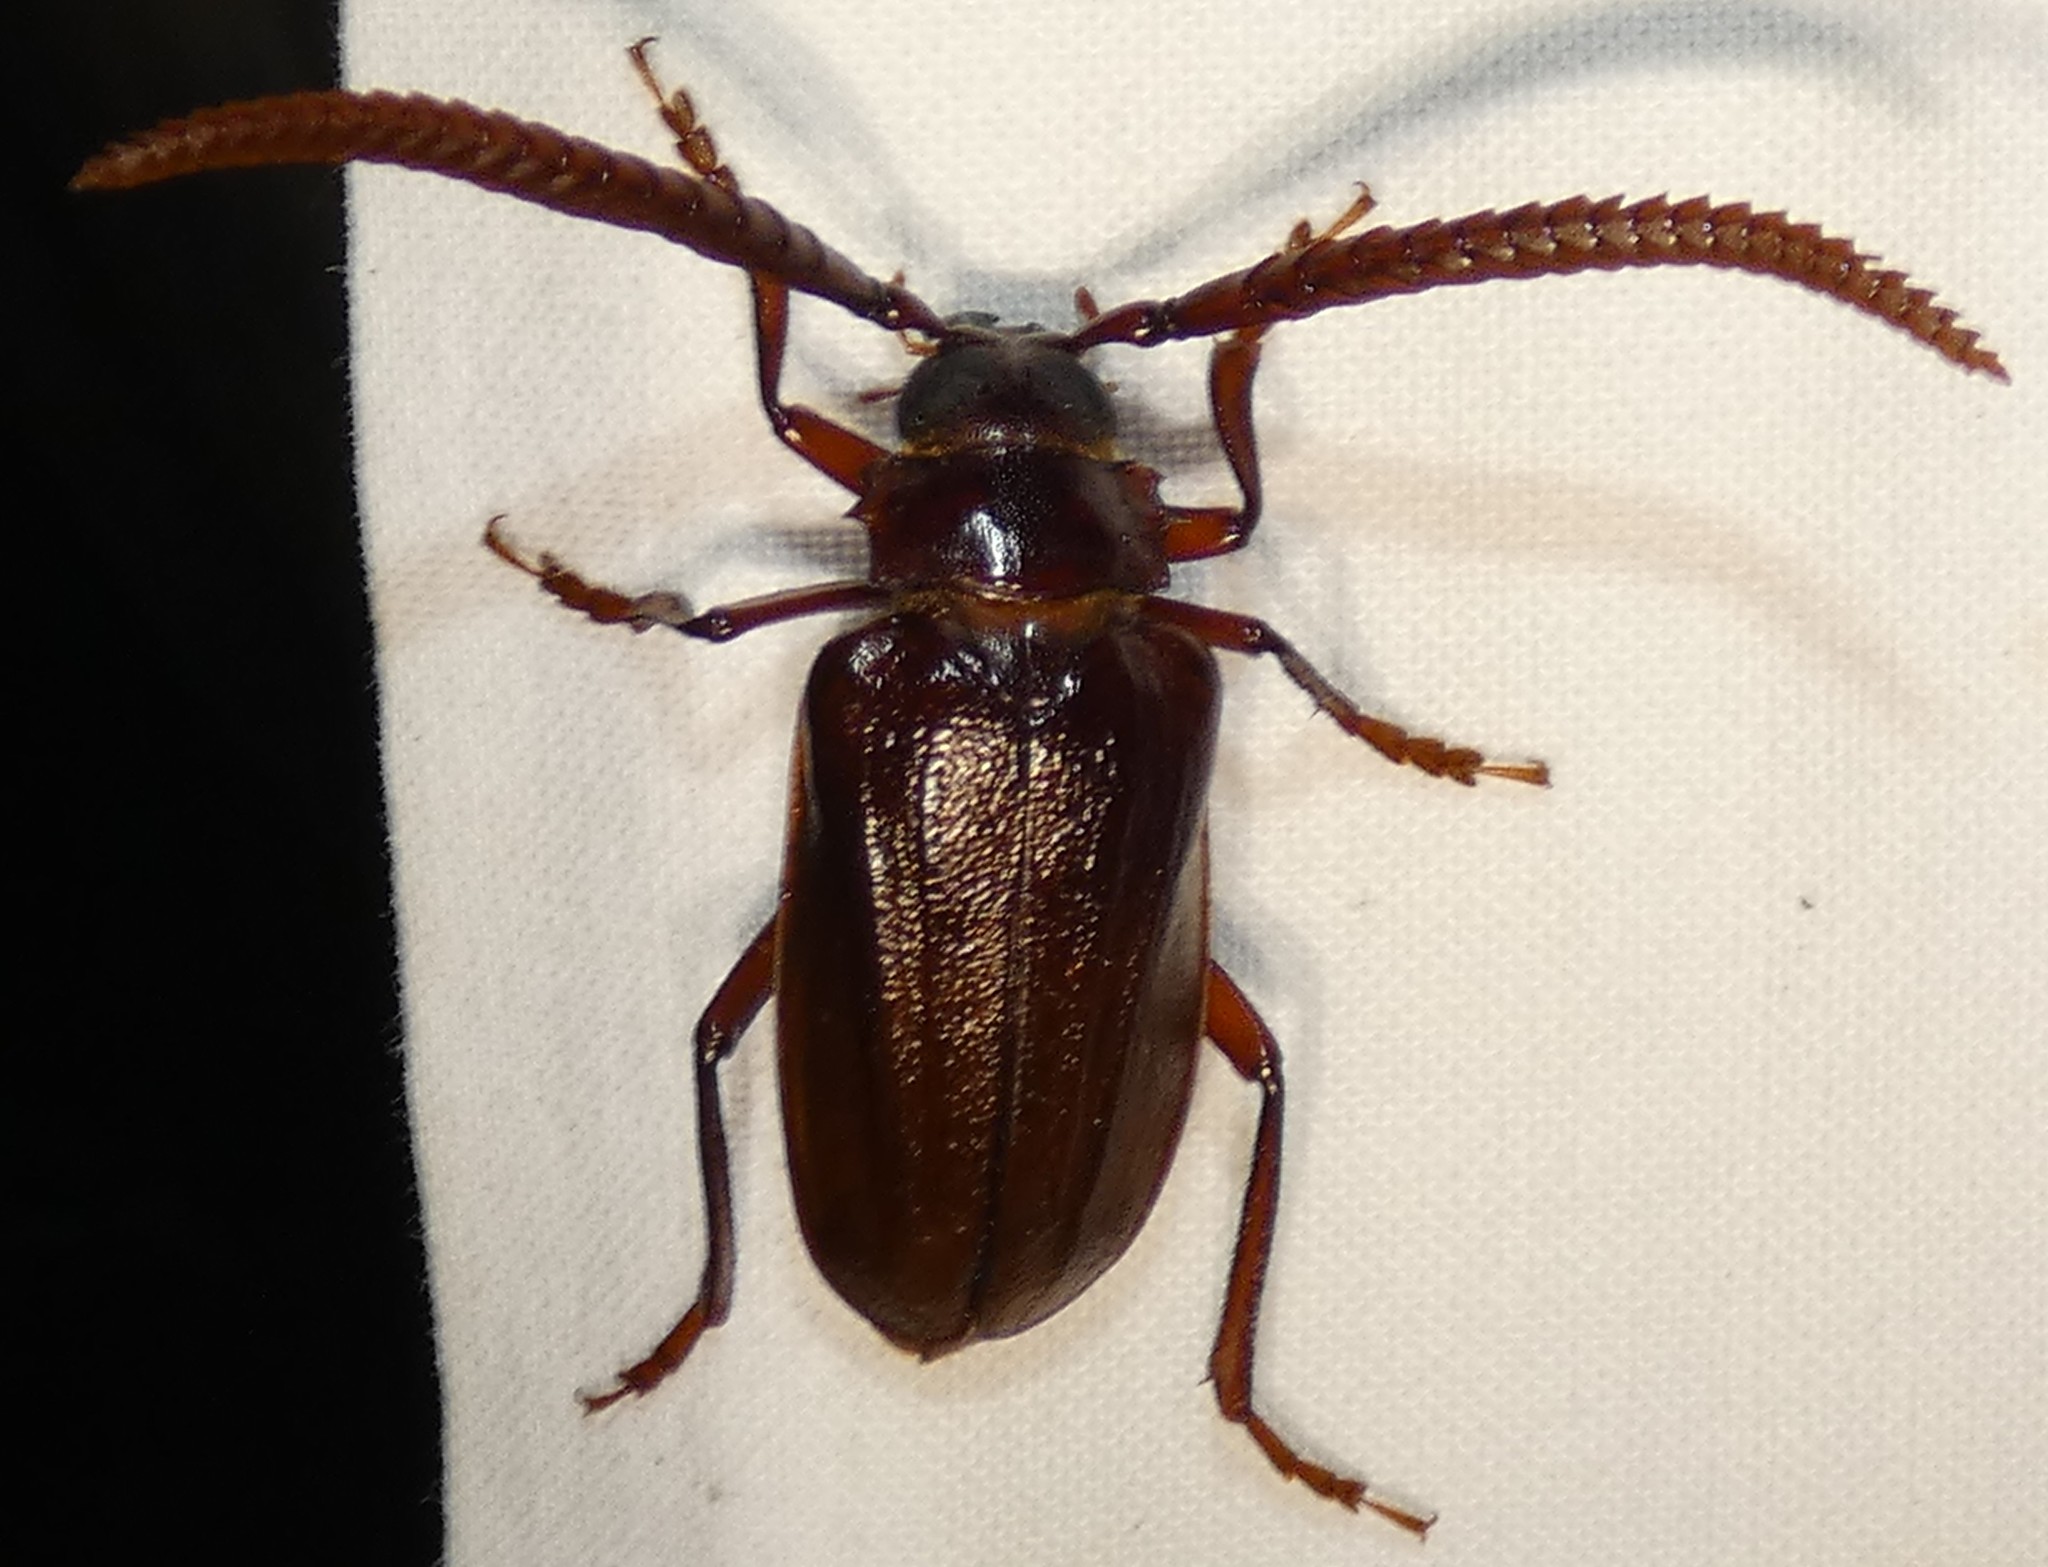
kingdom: Animalia
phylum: Arthropoda
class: Insecta
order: Coleoptera
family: Cerambycidae
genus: Prionus
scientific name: Prionus imbricornis
